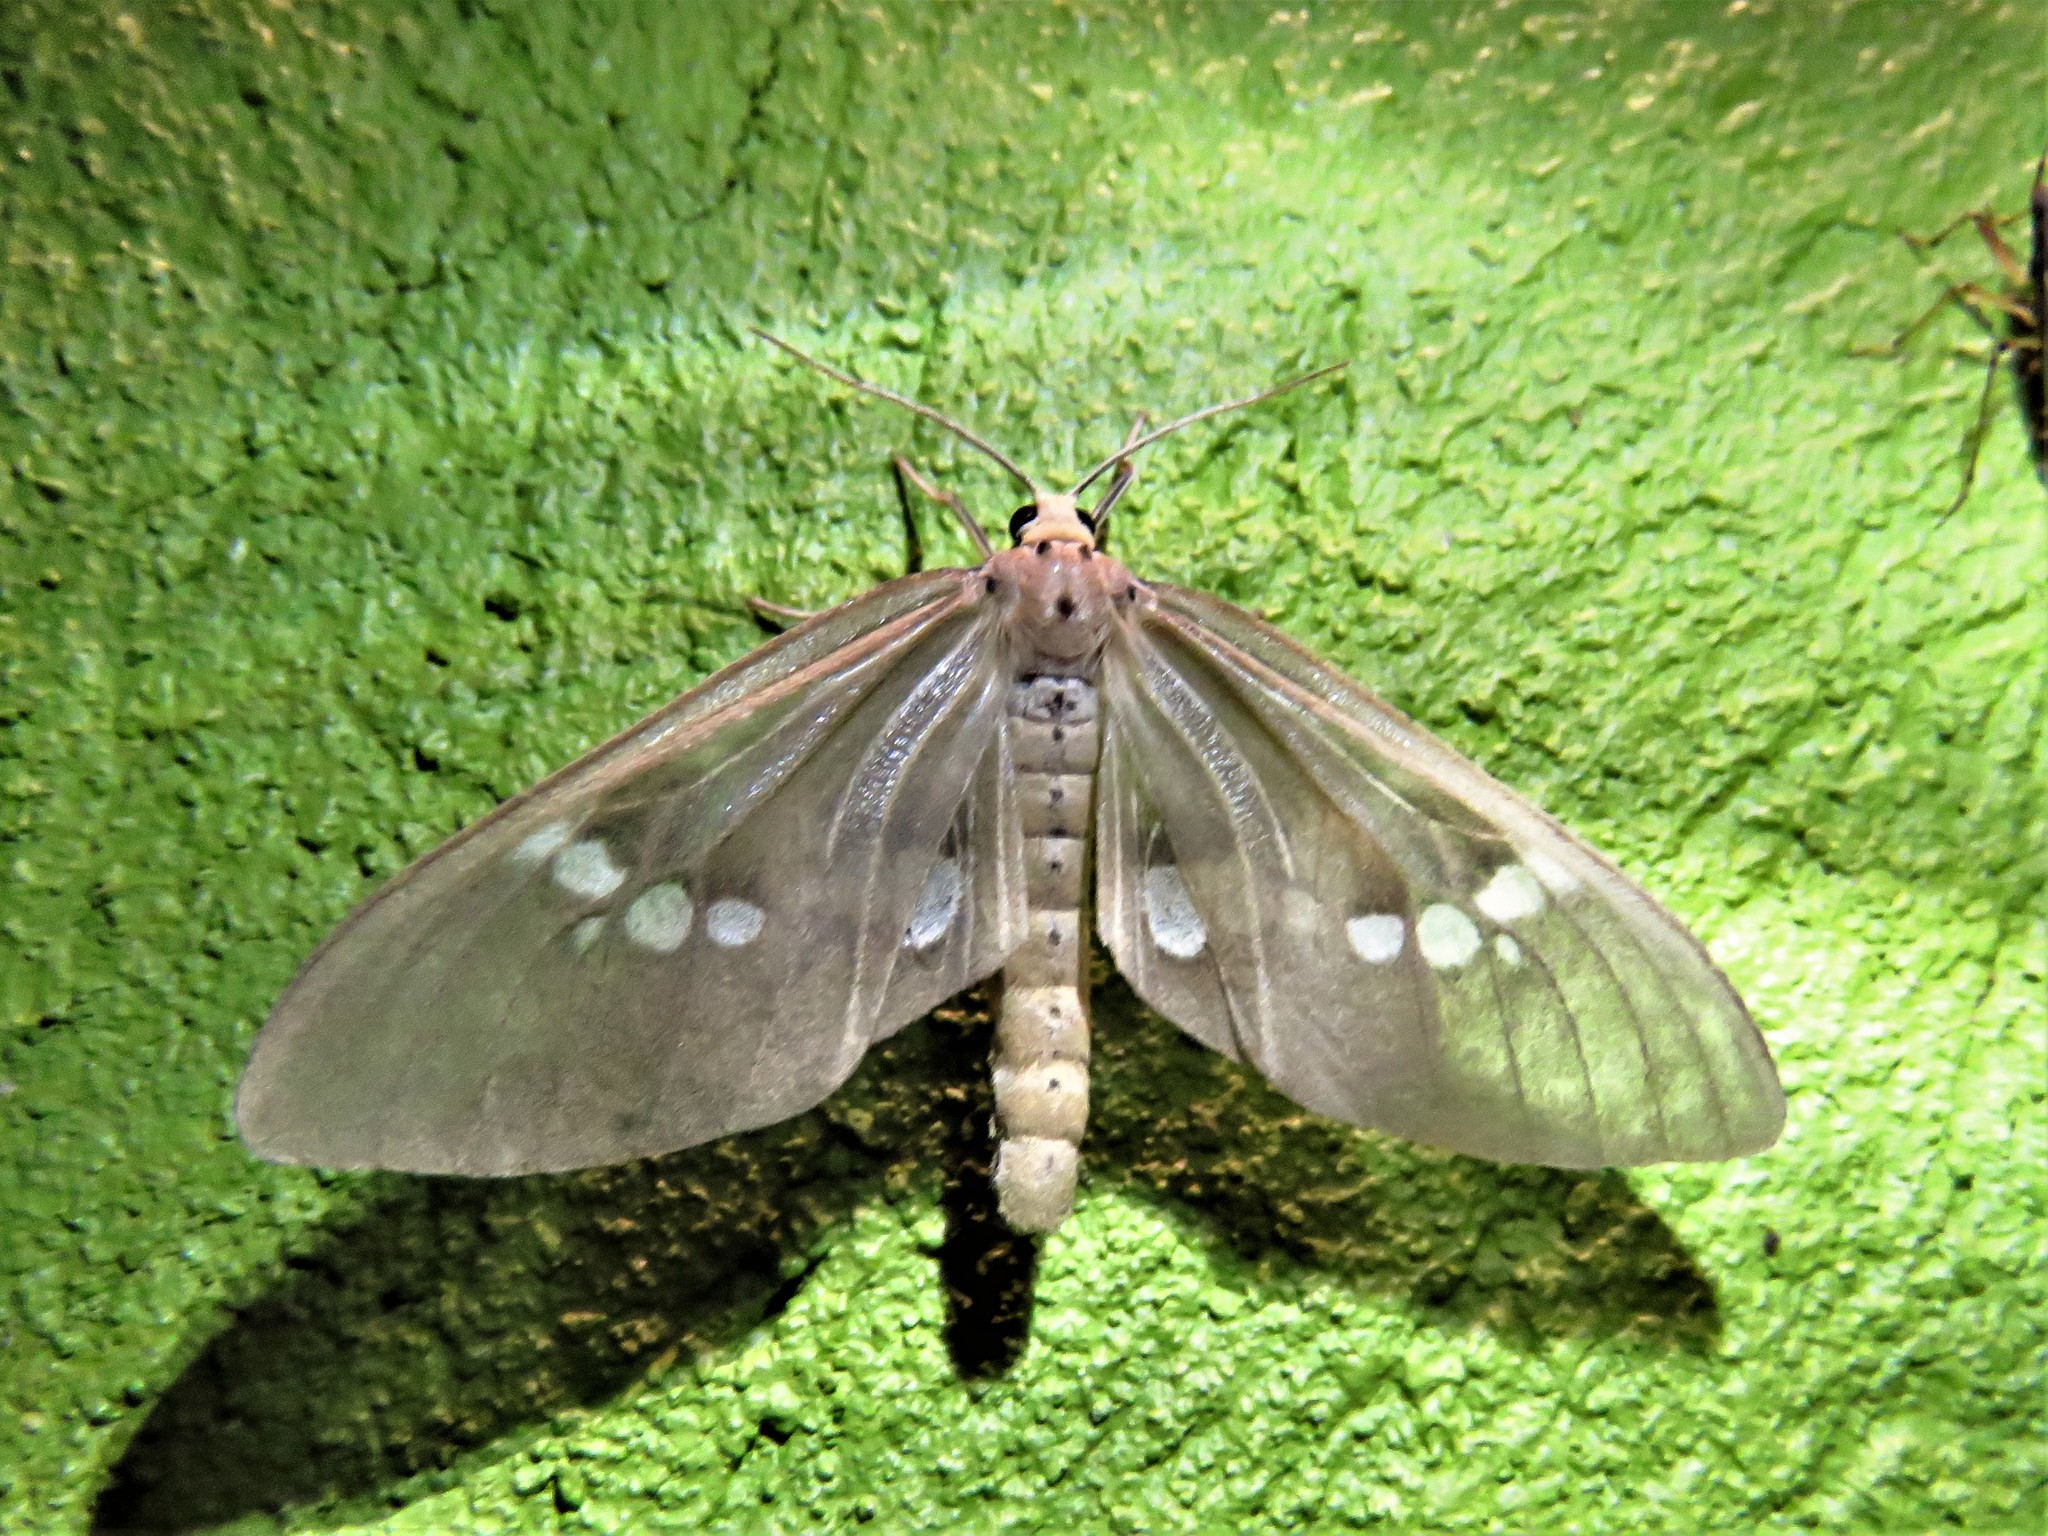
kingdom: Animalia
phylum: Arthropoda
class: Insecta
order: Lepidoptera
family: Erebidae
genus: Meganaclia
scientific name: Meganaclia sippia
